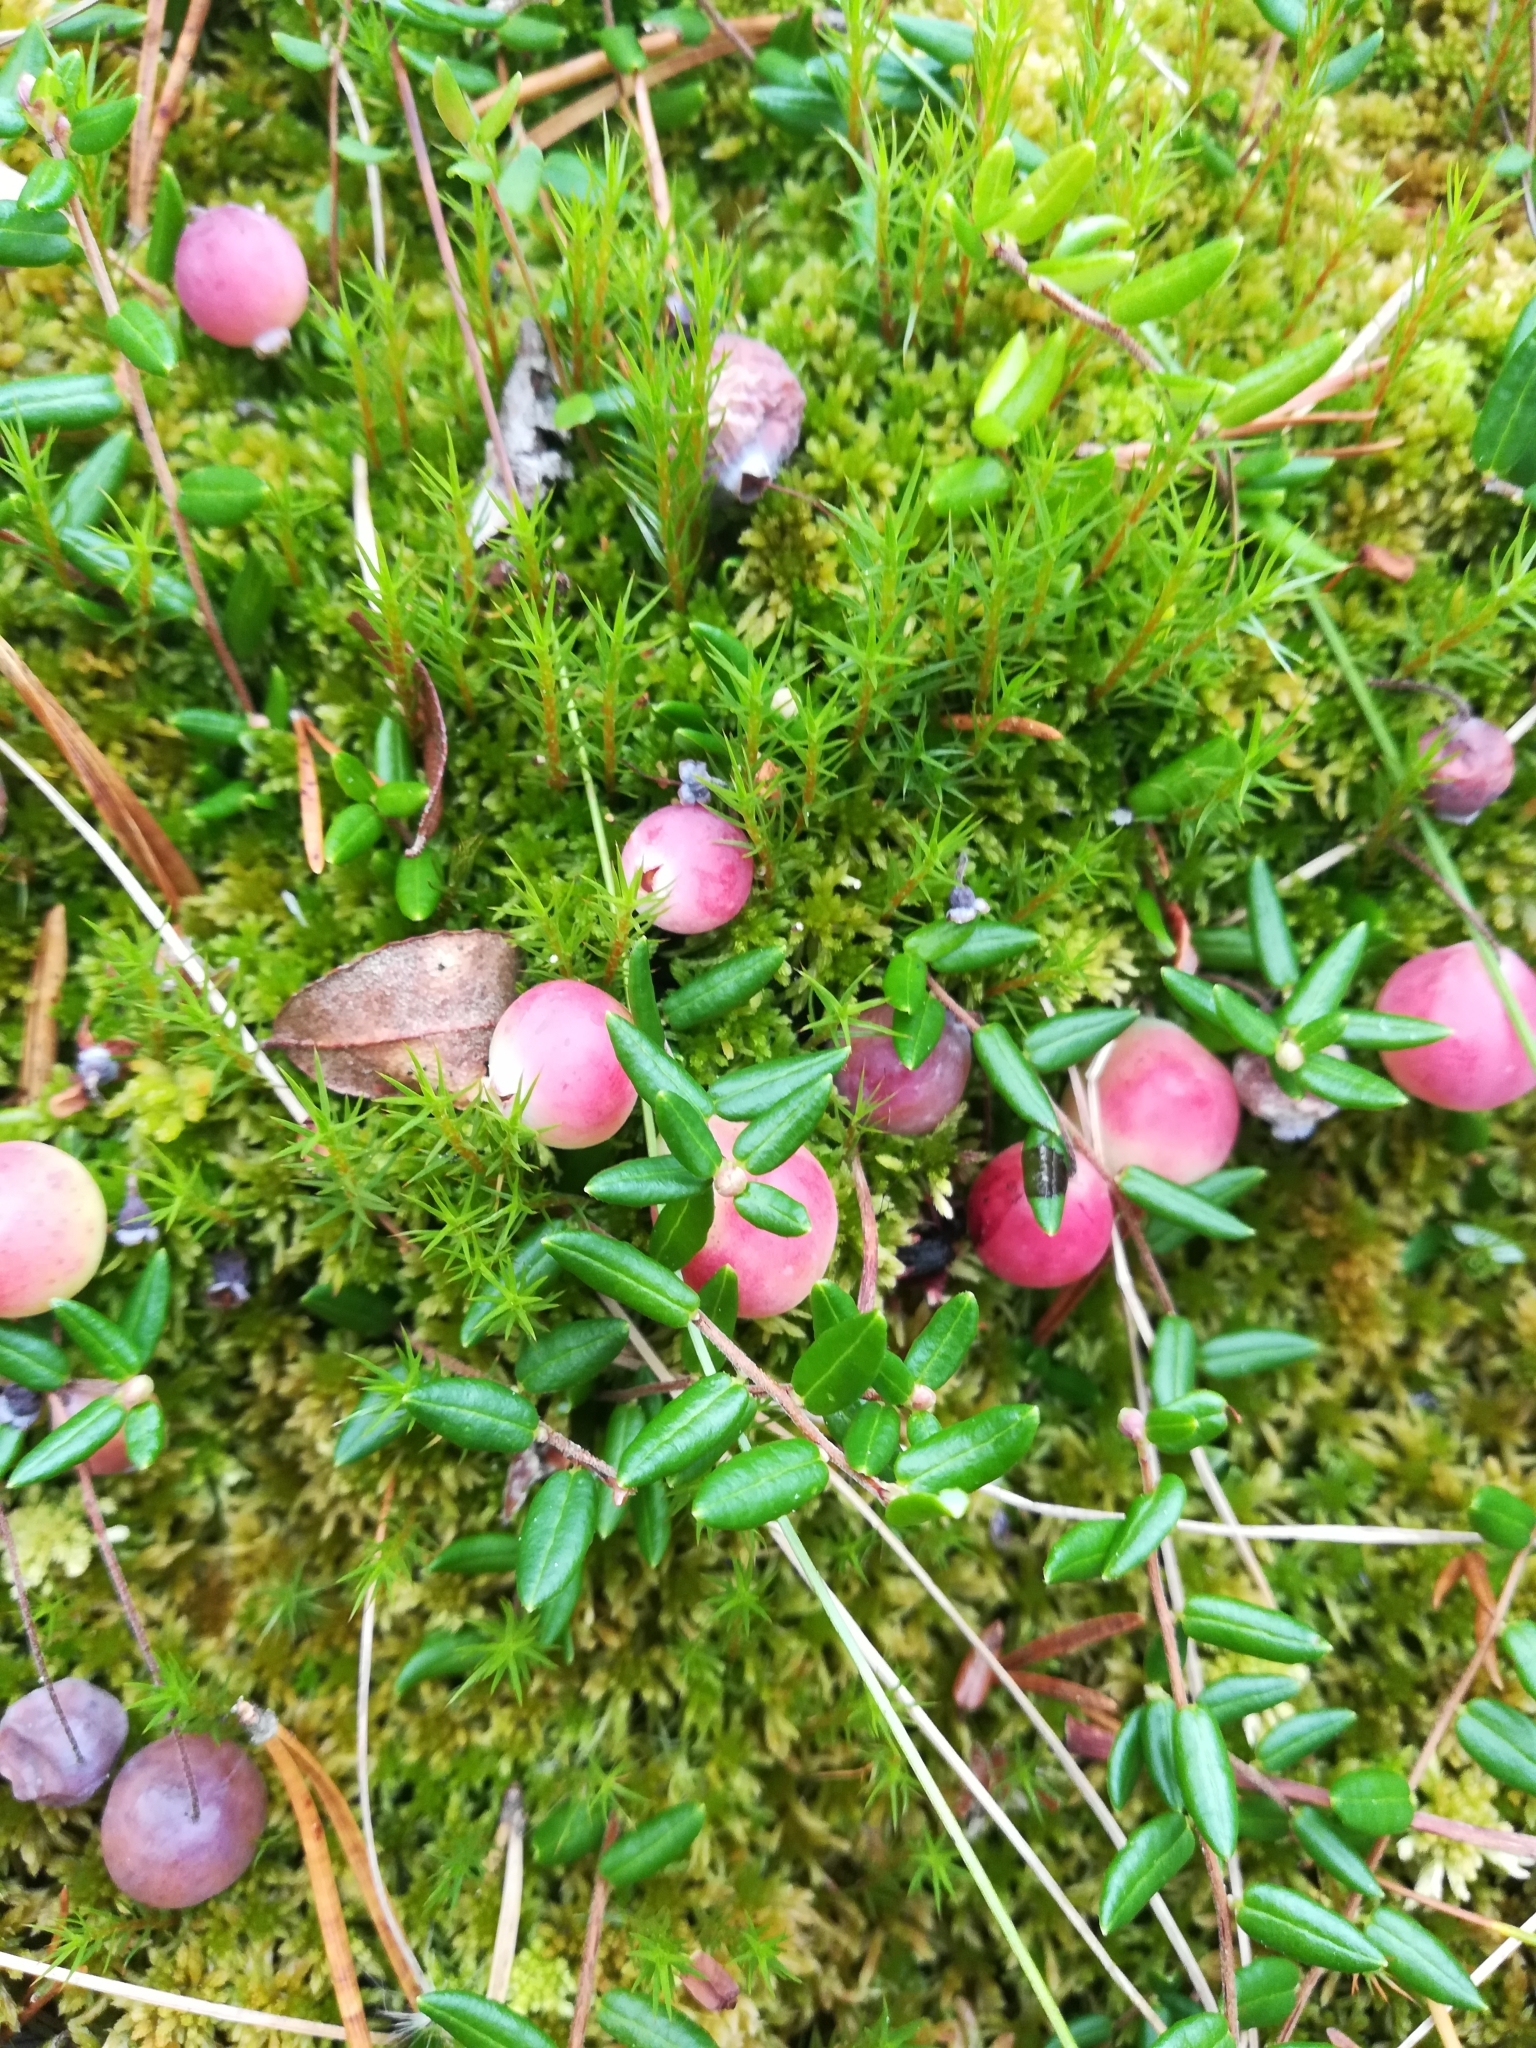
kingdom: Plantae
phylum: Tracheophyta
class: Magnoliopsida
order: Ericales
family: Ericaceae
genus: Vaccinium
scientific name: Vaccinium oxycoccos
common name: Cranberry
